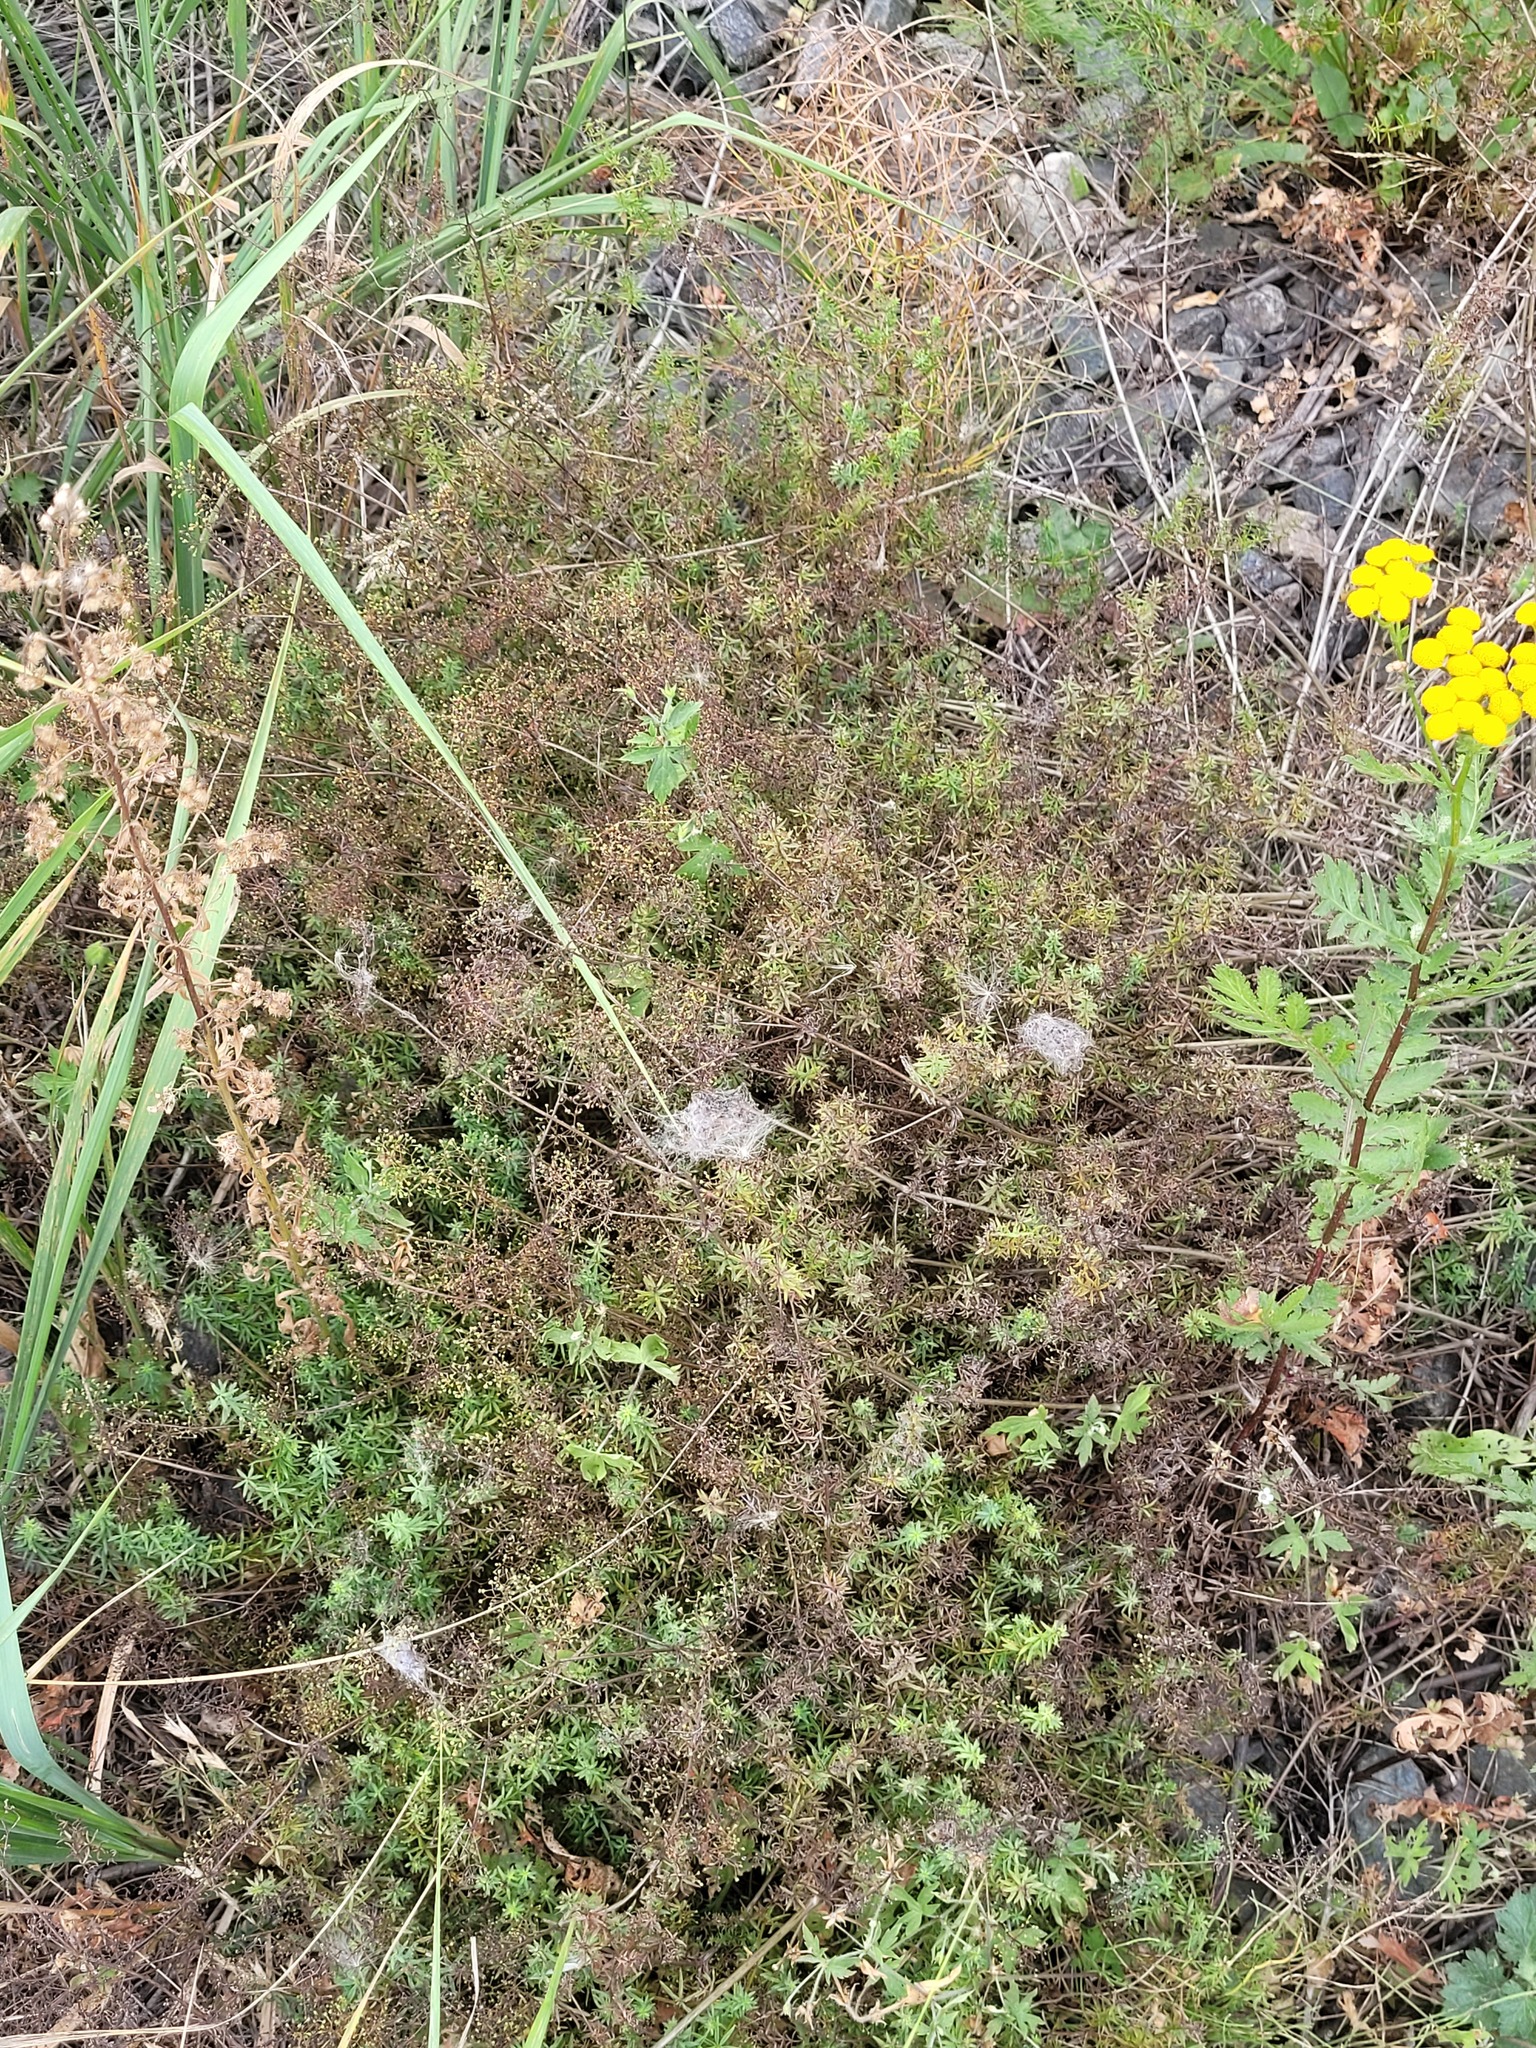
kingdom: Plantae
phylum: Tracheophyta
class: Magnoliopsida
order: Gentianales
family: Rubiaceae
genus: Galium
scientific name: Galium mollugo
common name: Hedge bedstraw
